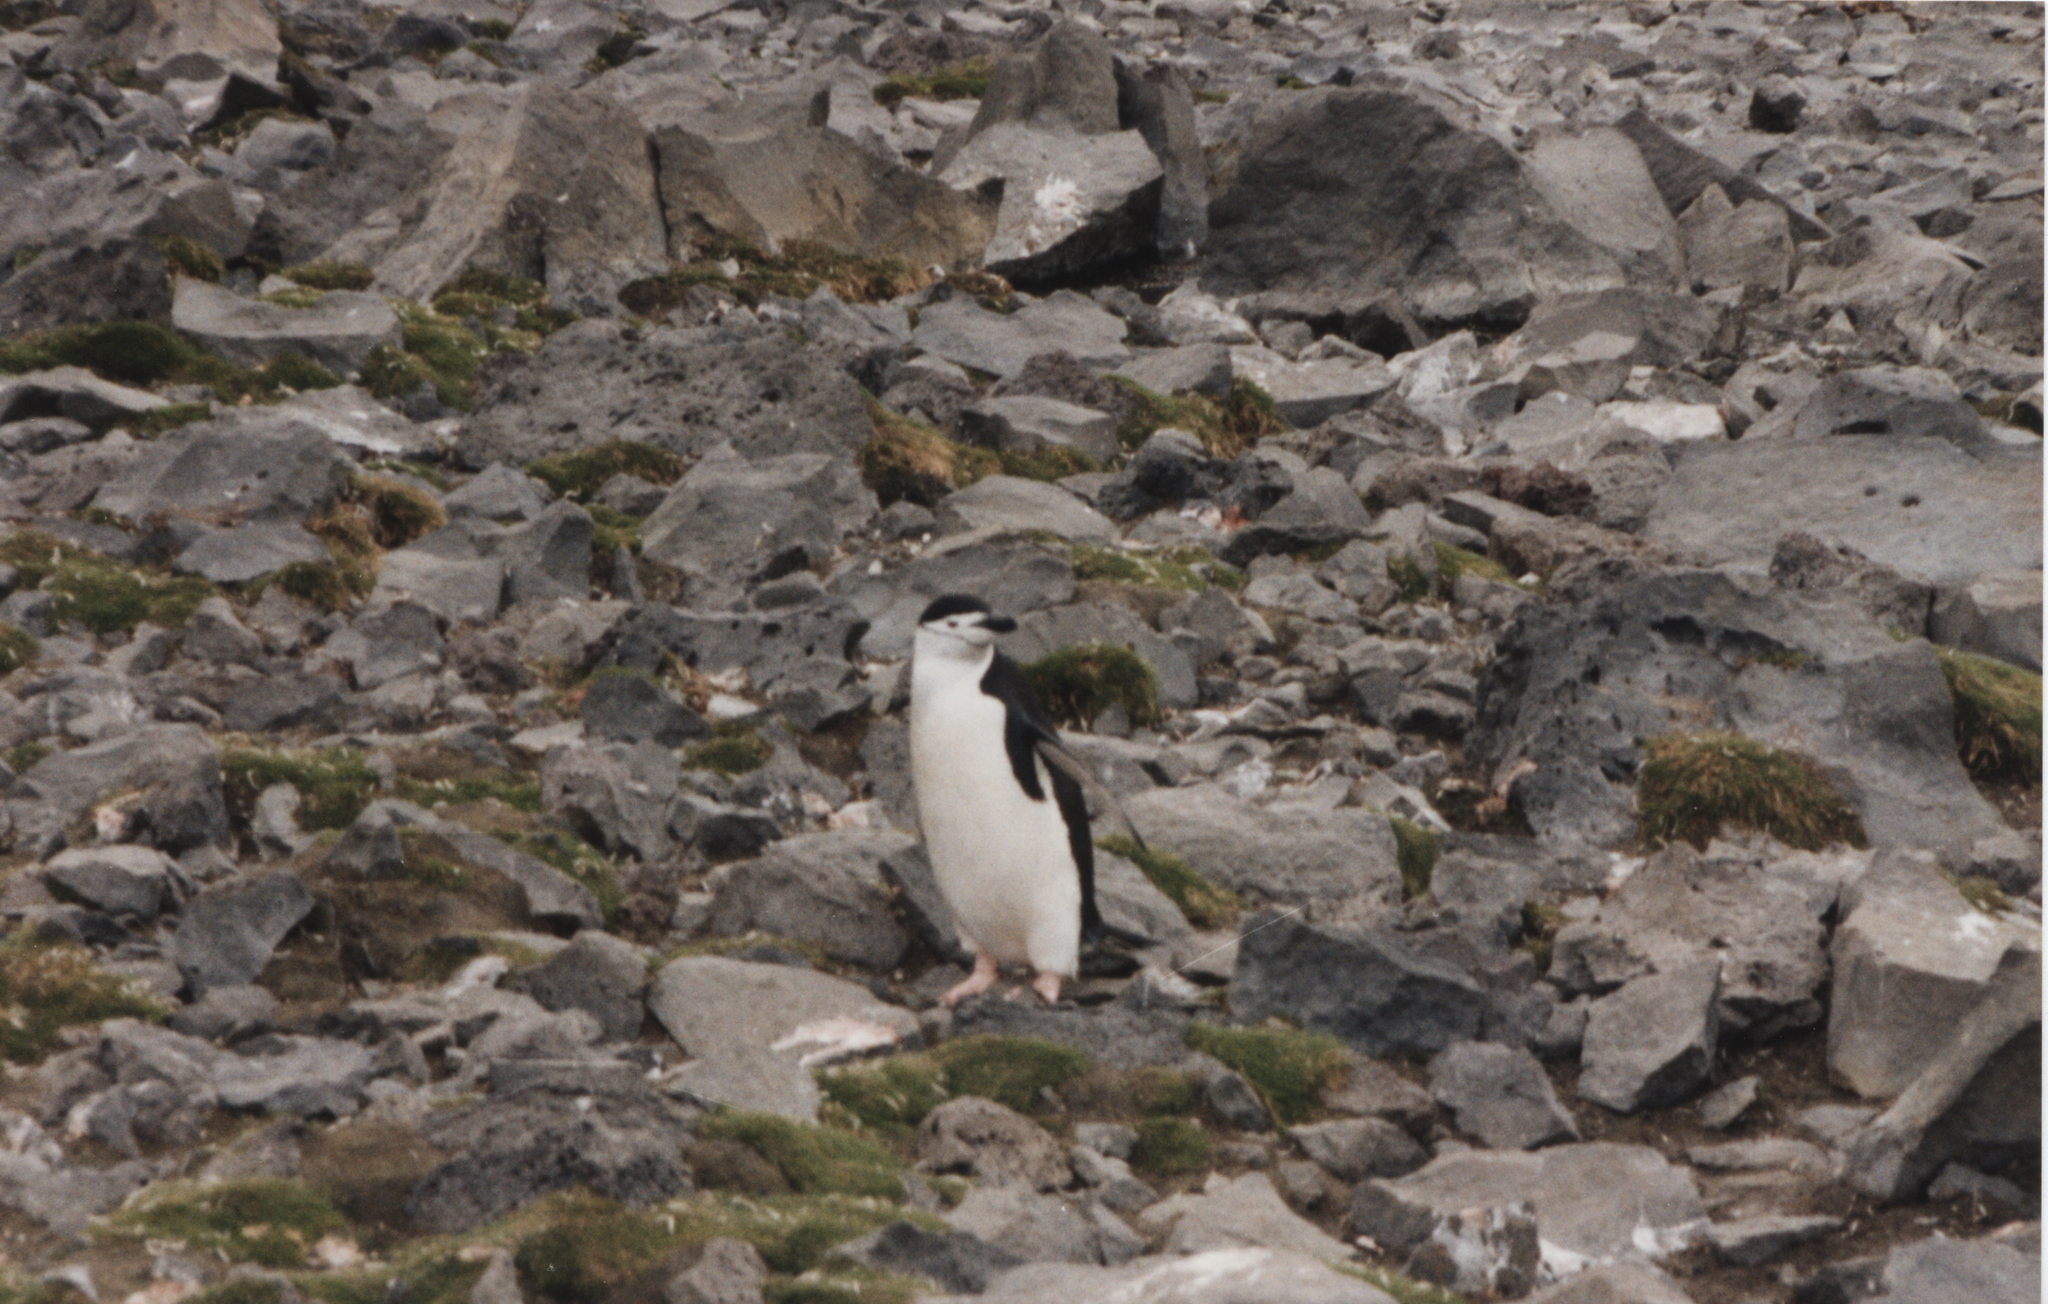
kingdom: Animalia
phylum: Chordata
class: Aves
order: Sphenisciformes
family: Spheniscidae
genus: Pygoscelis
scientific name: Pygoscelis antarcticus
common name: Chinstrap penguin
